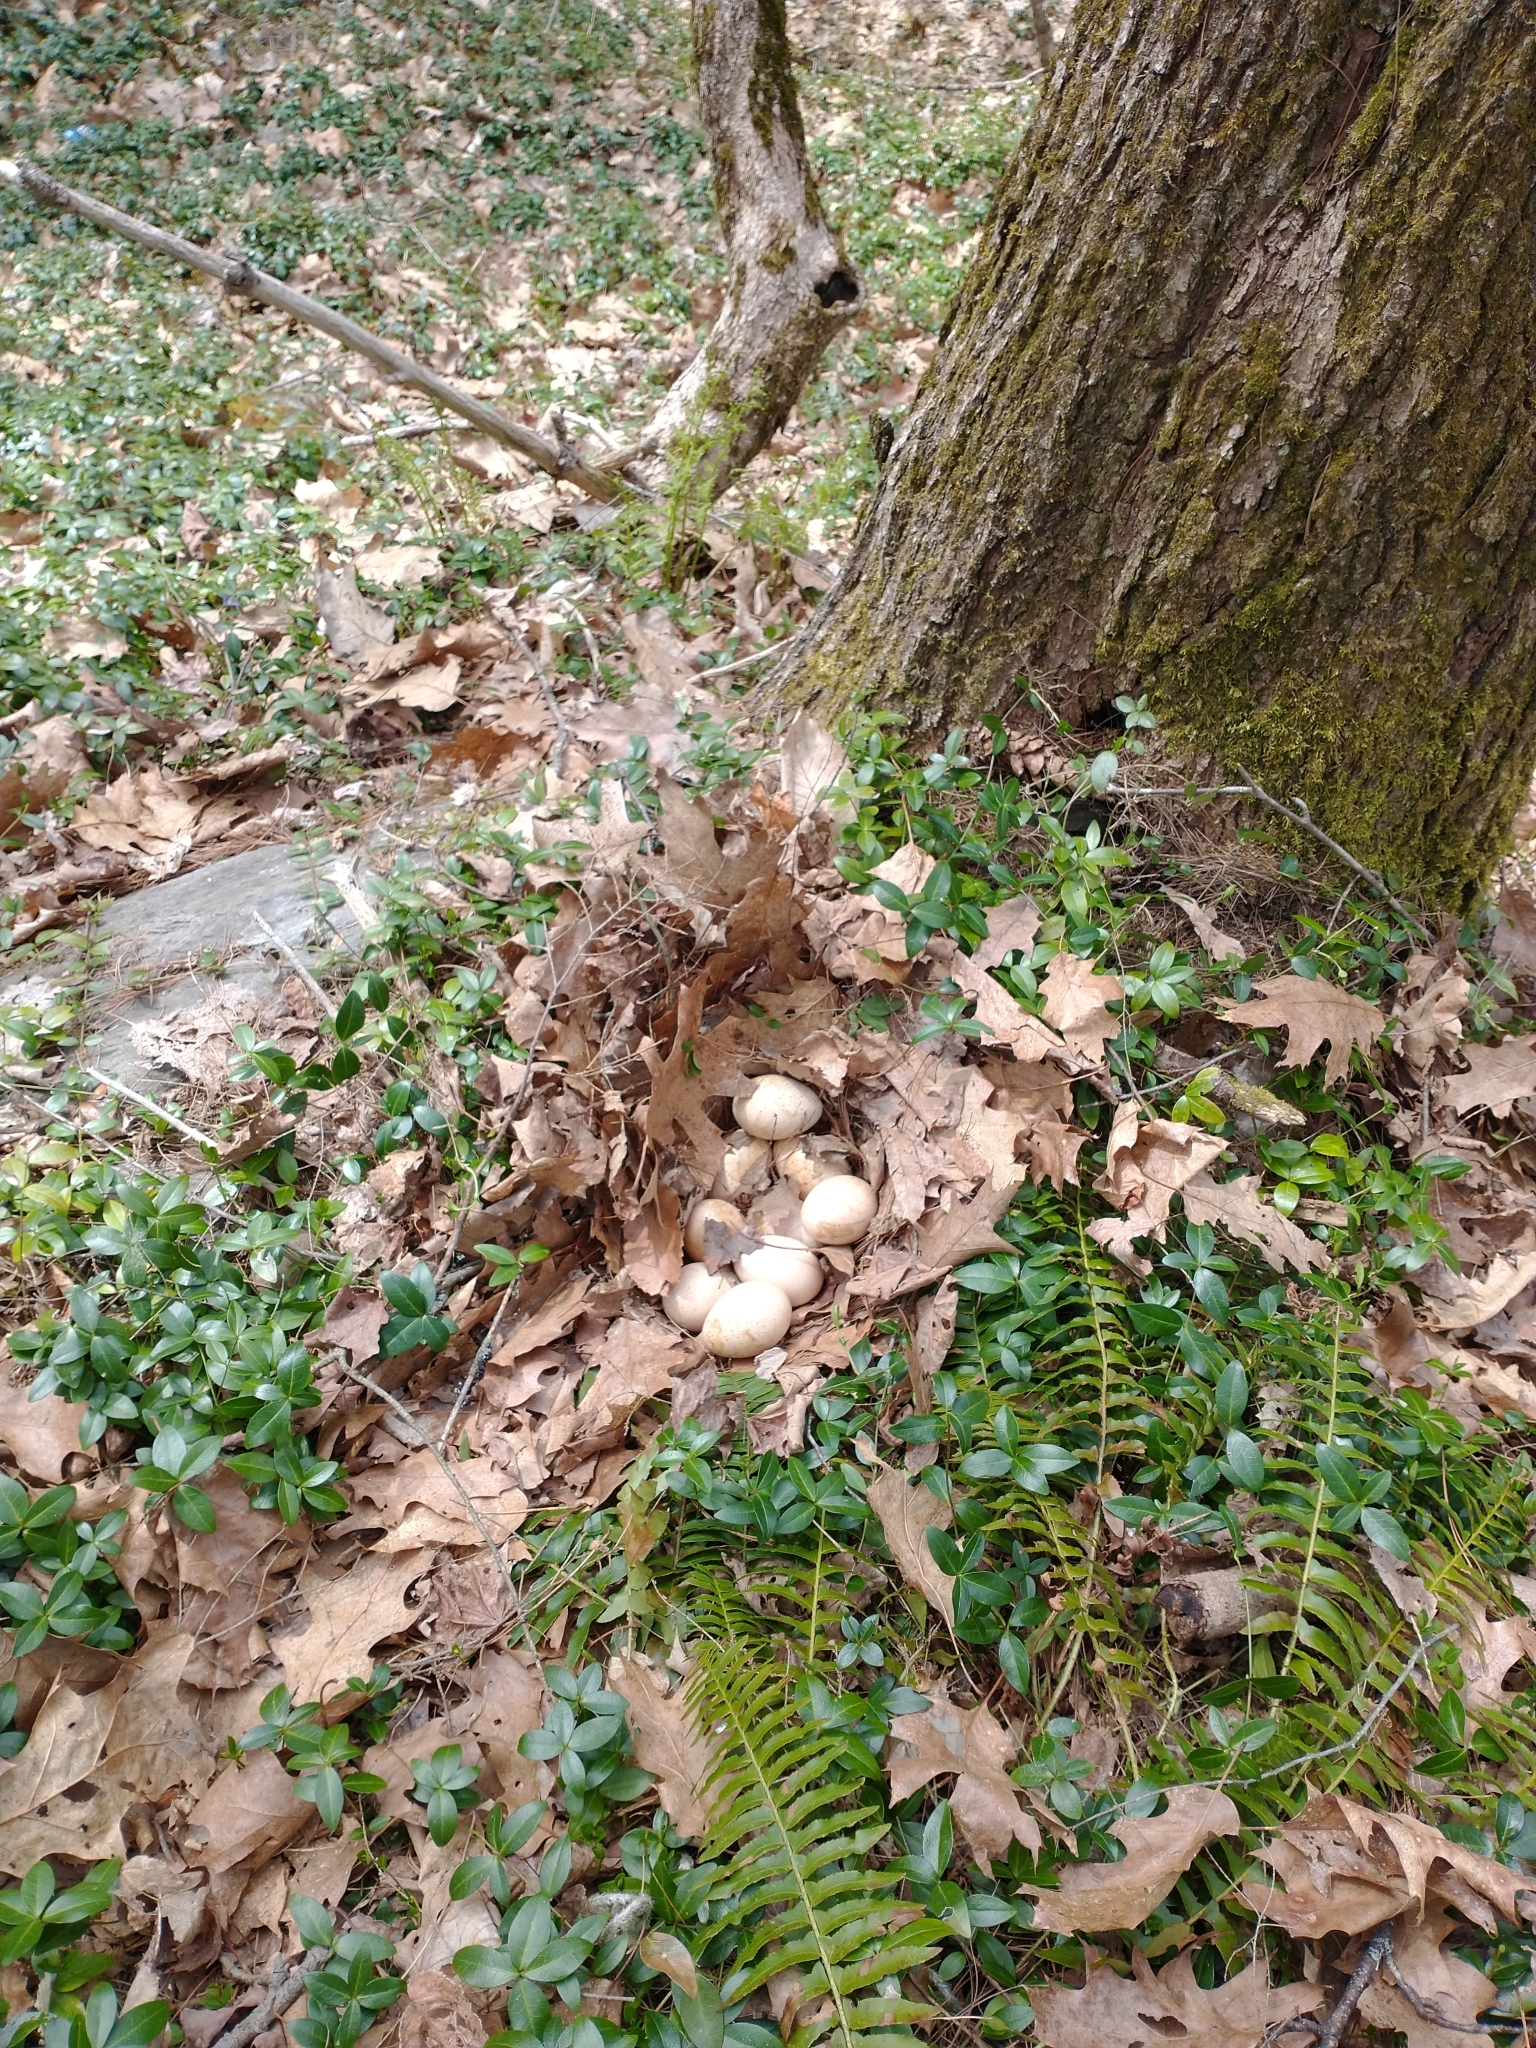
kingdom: Animalia
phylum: Chordata
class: Aves
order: Galliformes
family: Phasianidae
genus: Meleagris
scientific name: Meleagris gallopavo
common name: Wild turkey
